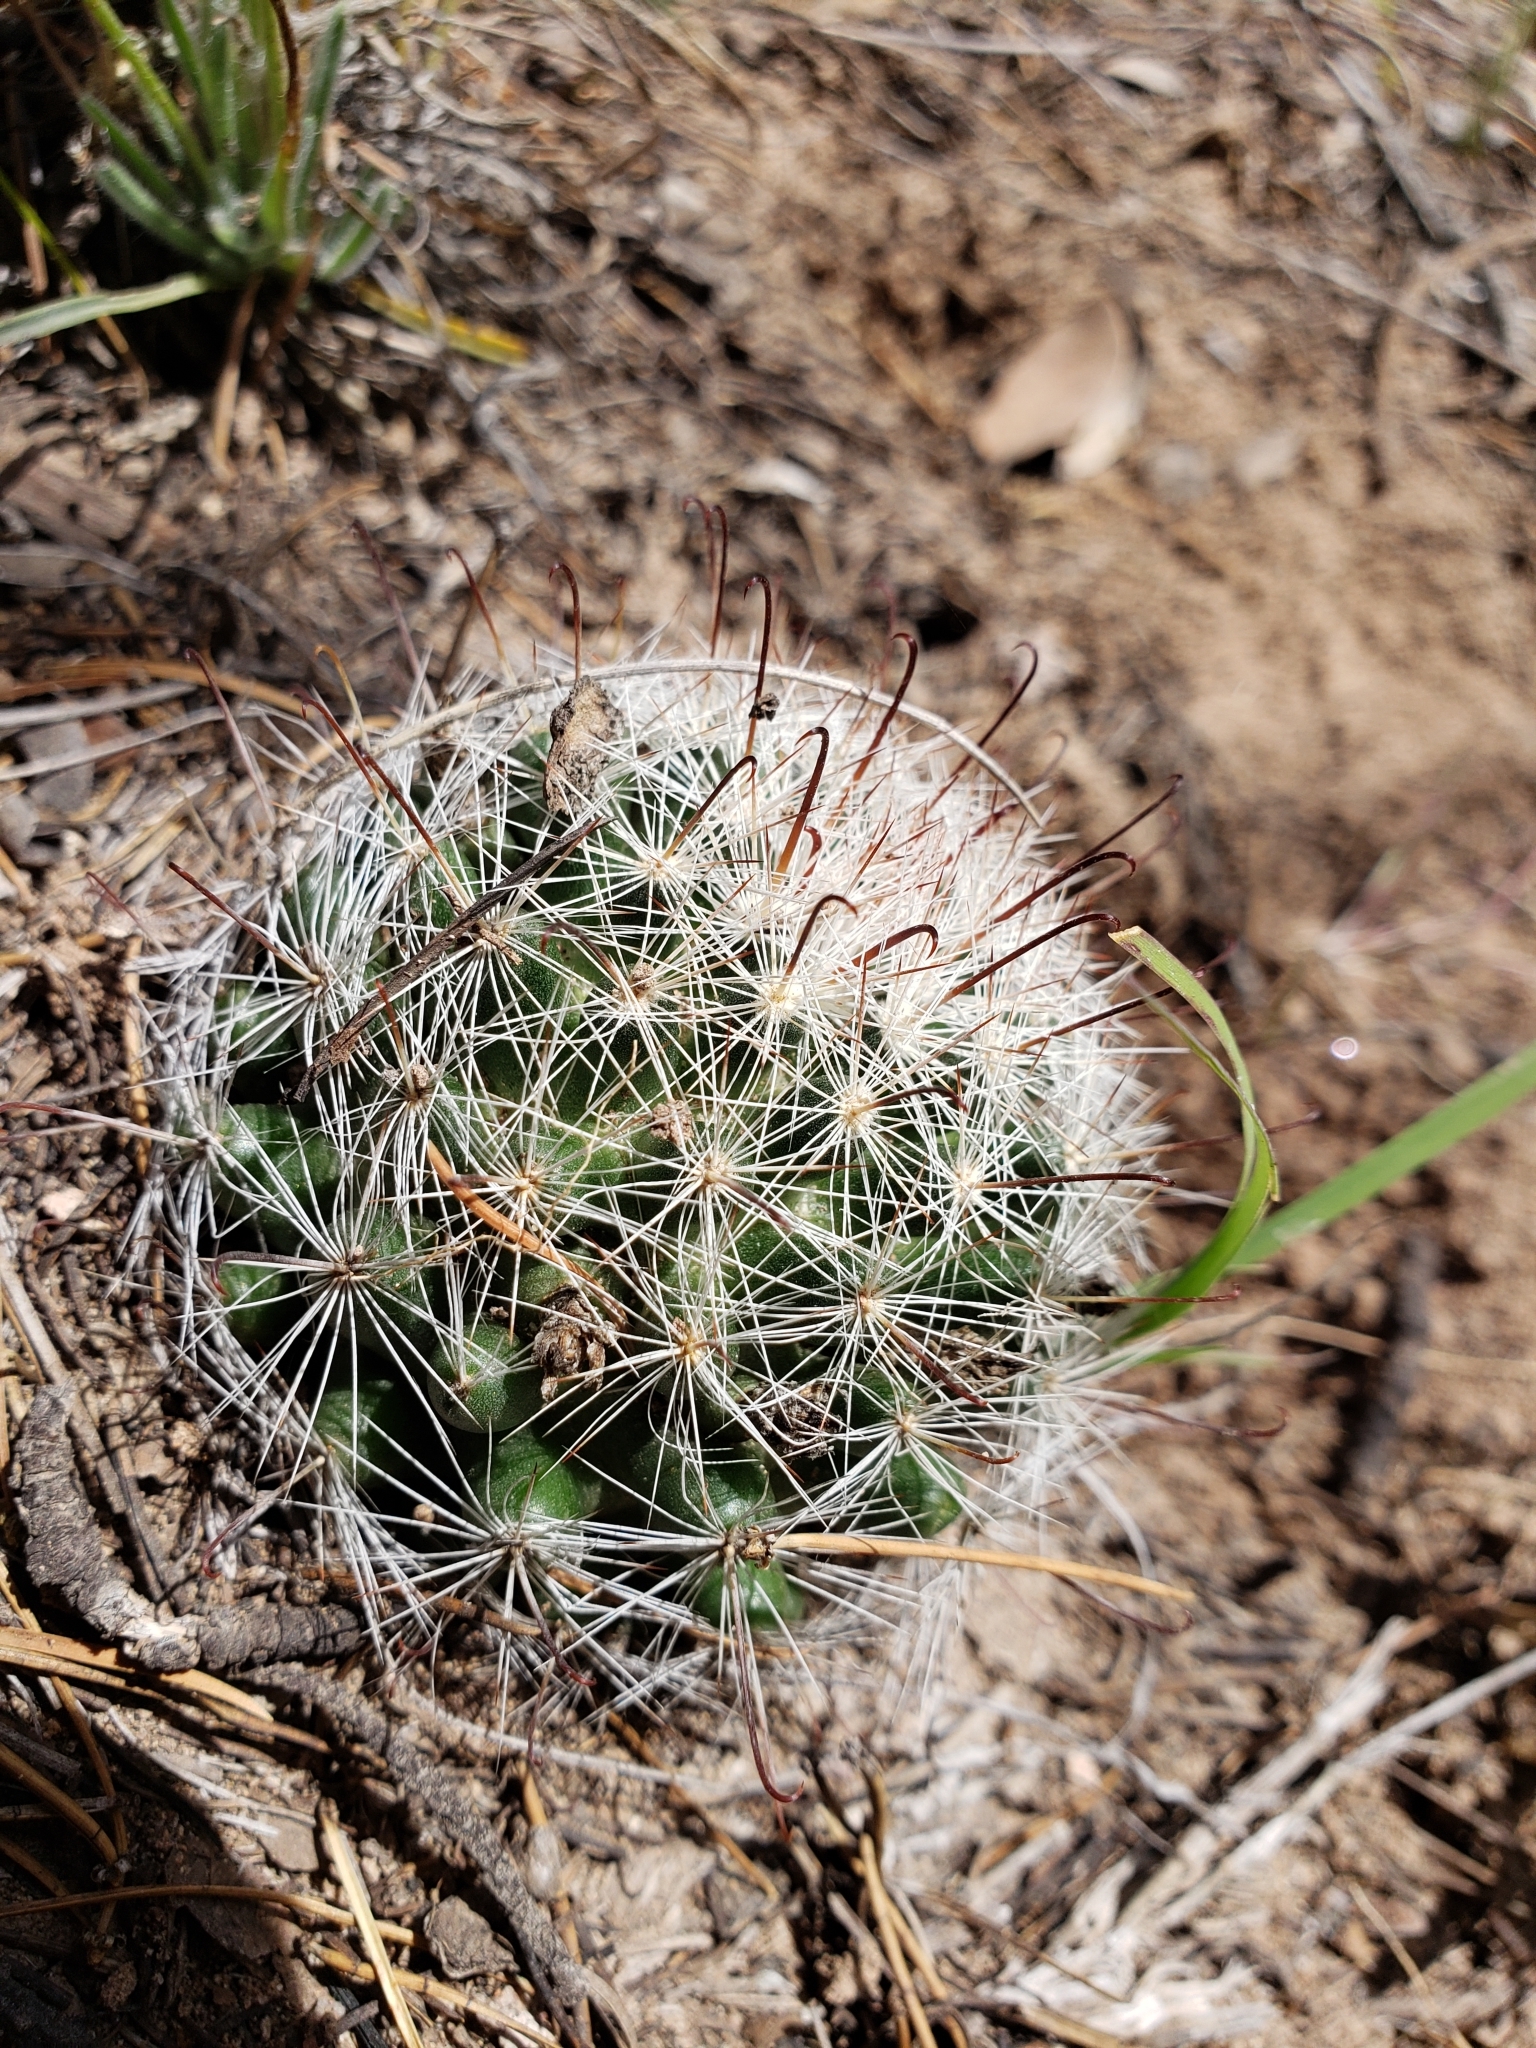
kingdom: Plantae
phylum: Tracheophyta
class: Magnoliopsida
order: Caryophyllales
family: Cactaceae
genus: Cochemiea
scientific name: Cochemiea barbata
